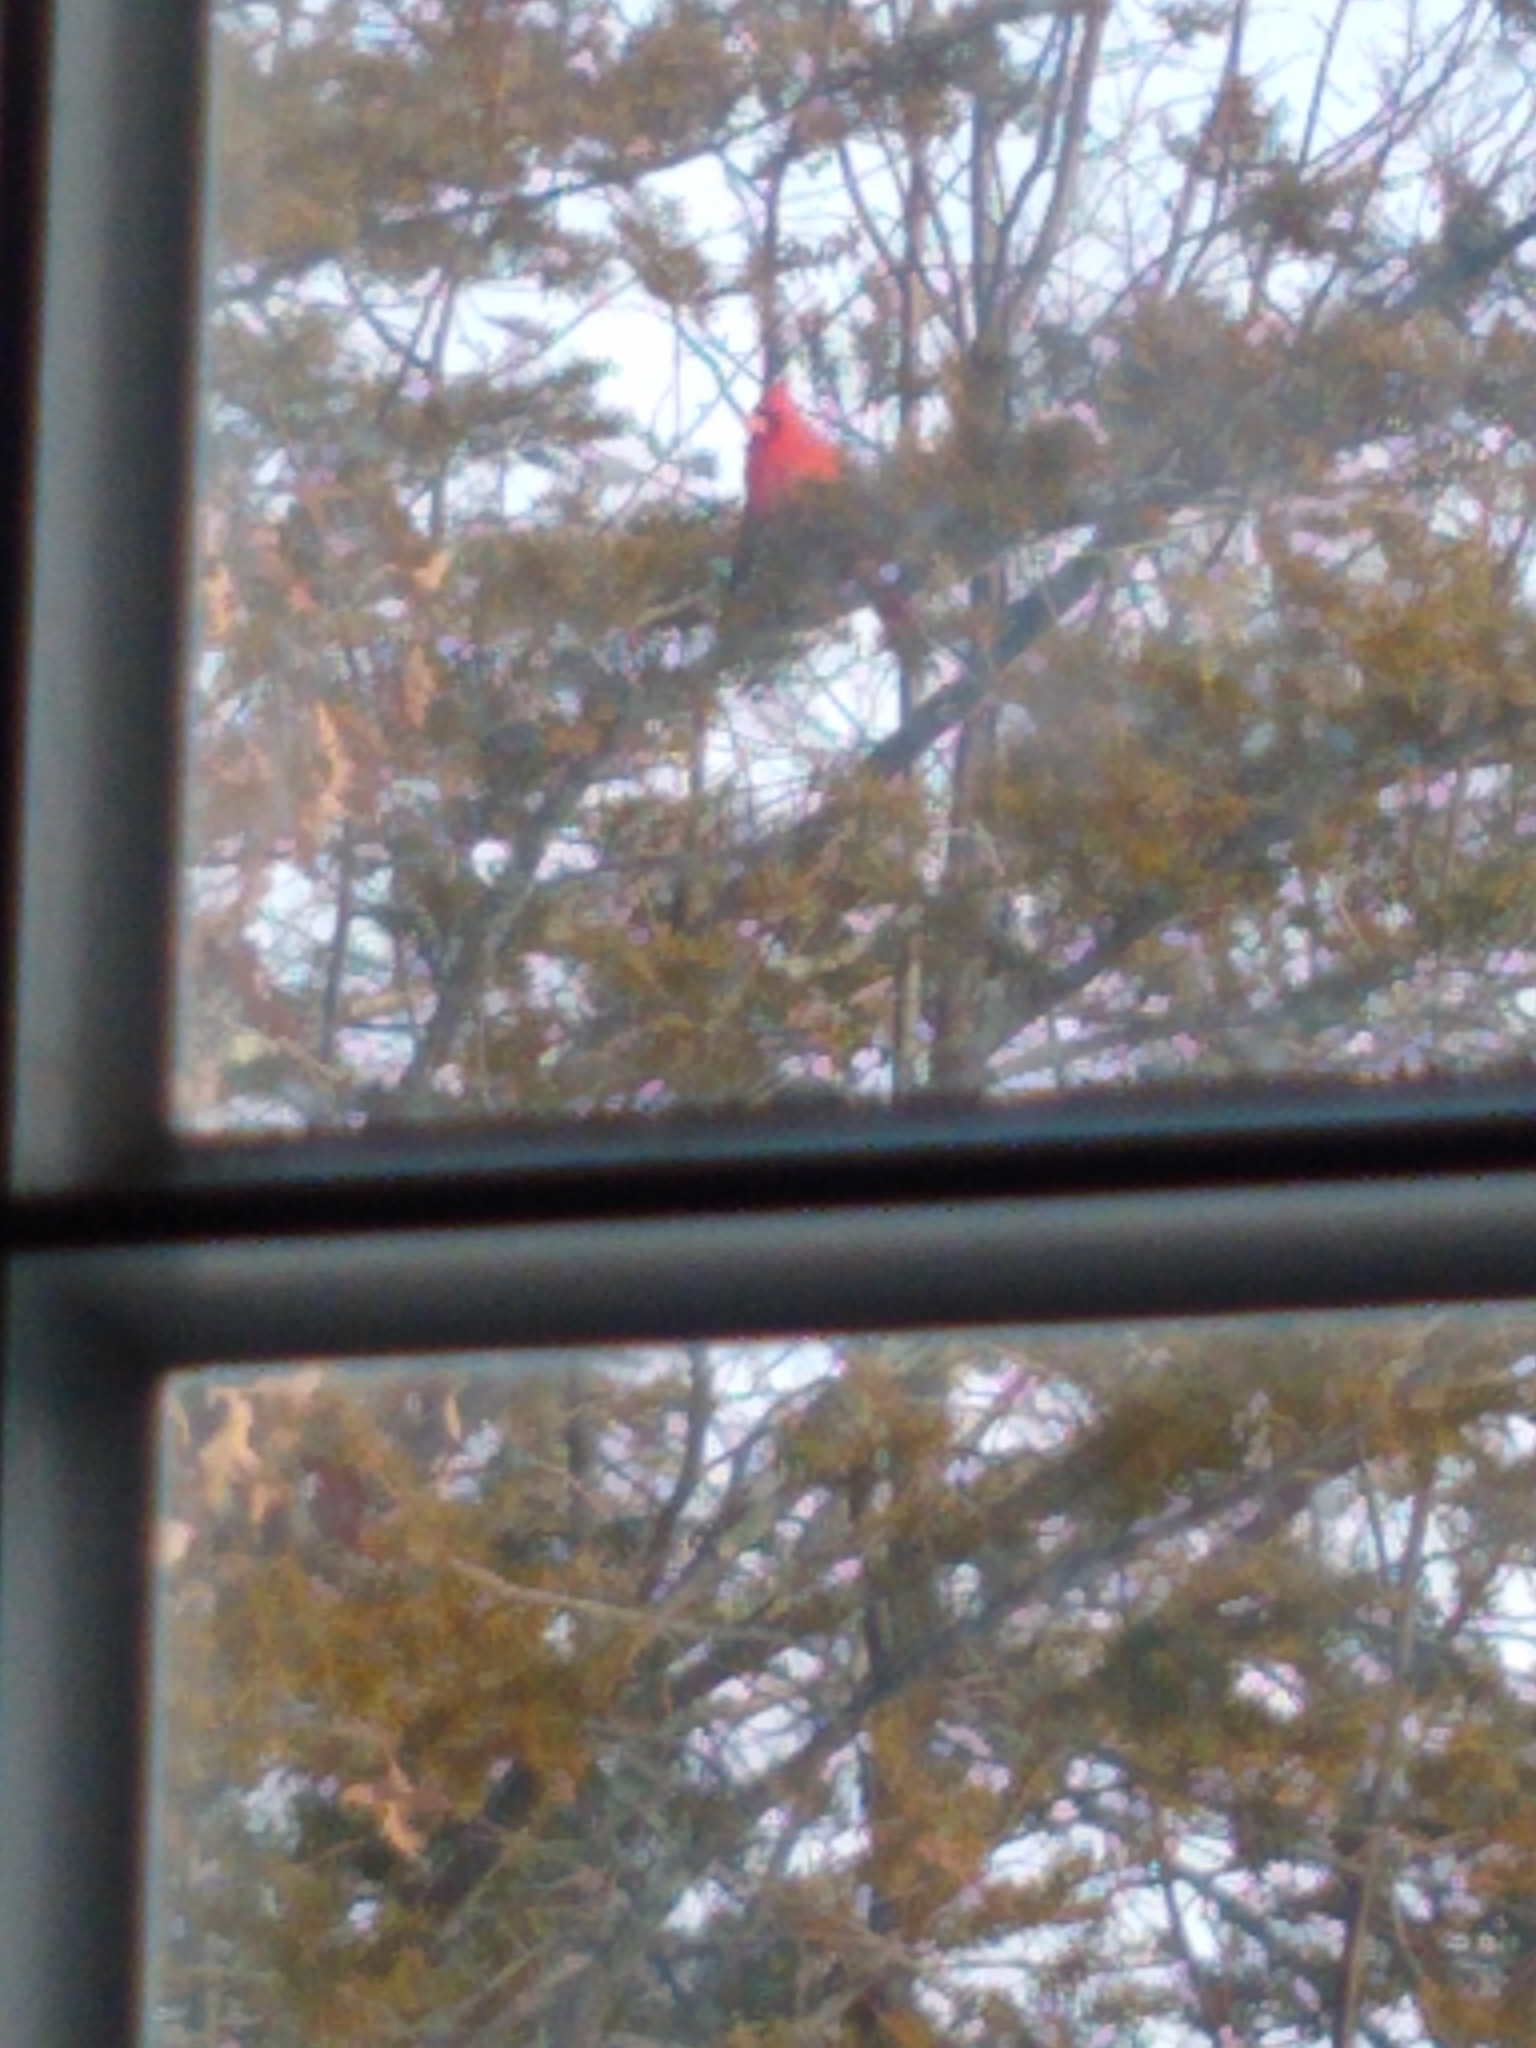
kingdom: Animalia
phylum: Chordata
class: Aves
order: Passeriformes
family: Cardinalidae
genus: Cardinalis
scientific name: Cardinalis cardinalis
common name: Northern cardinal
